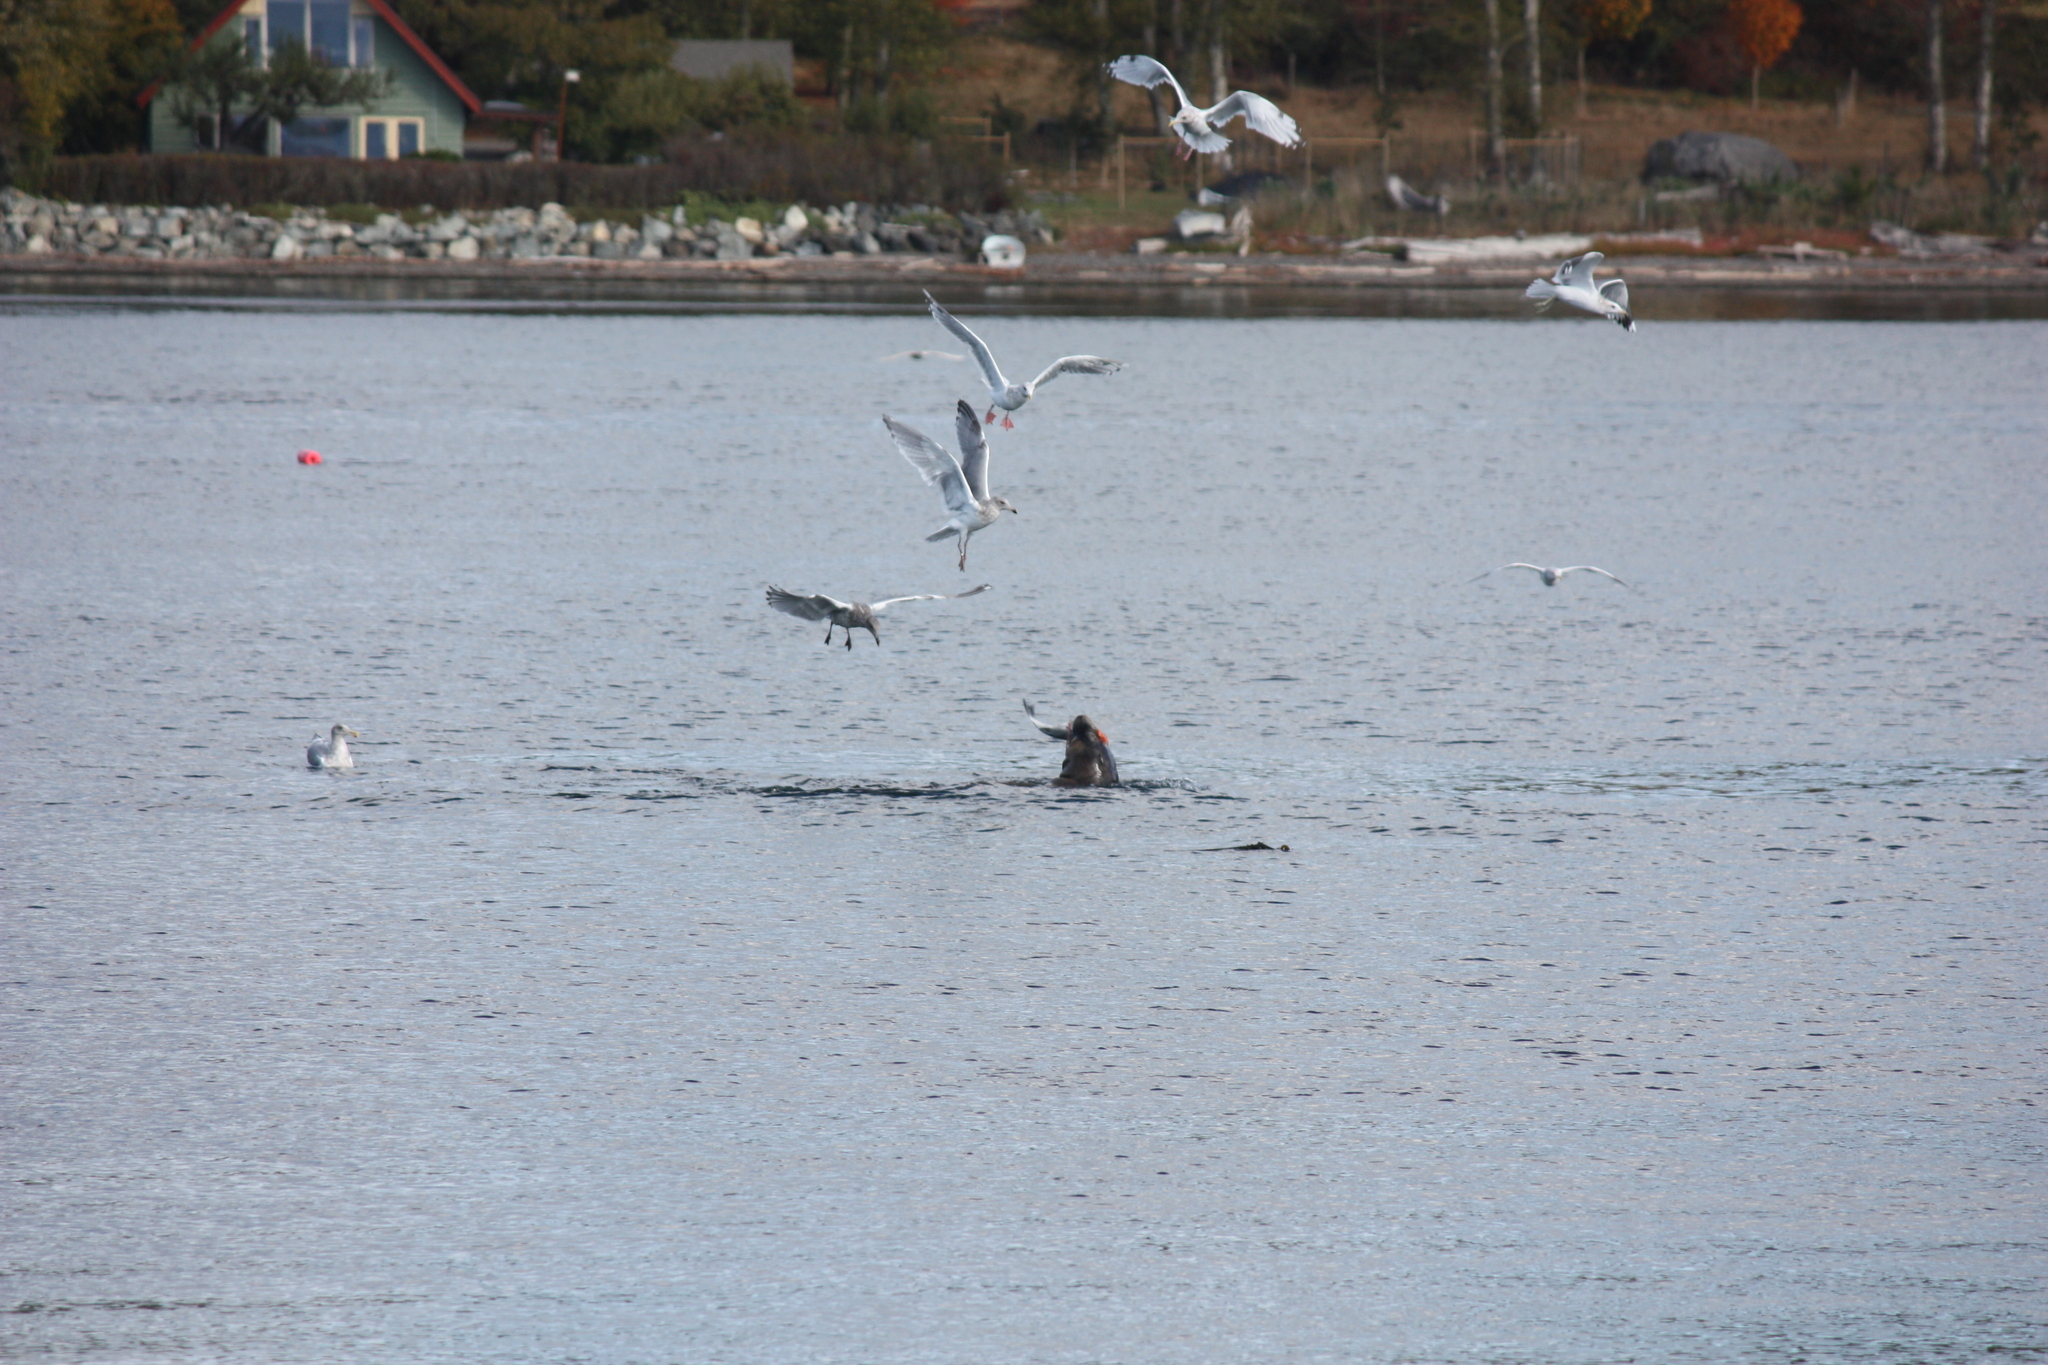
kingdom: Animalia
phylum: Chordata
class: Mammalia
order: Carnivora
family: Otariidae
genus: Zalophus
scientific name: Zalophus californianus
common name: California sea lion
